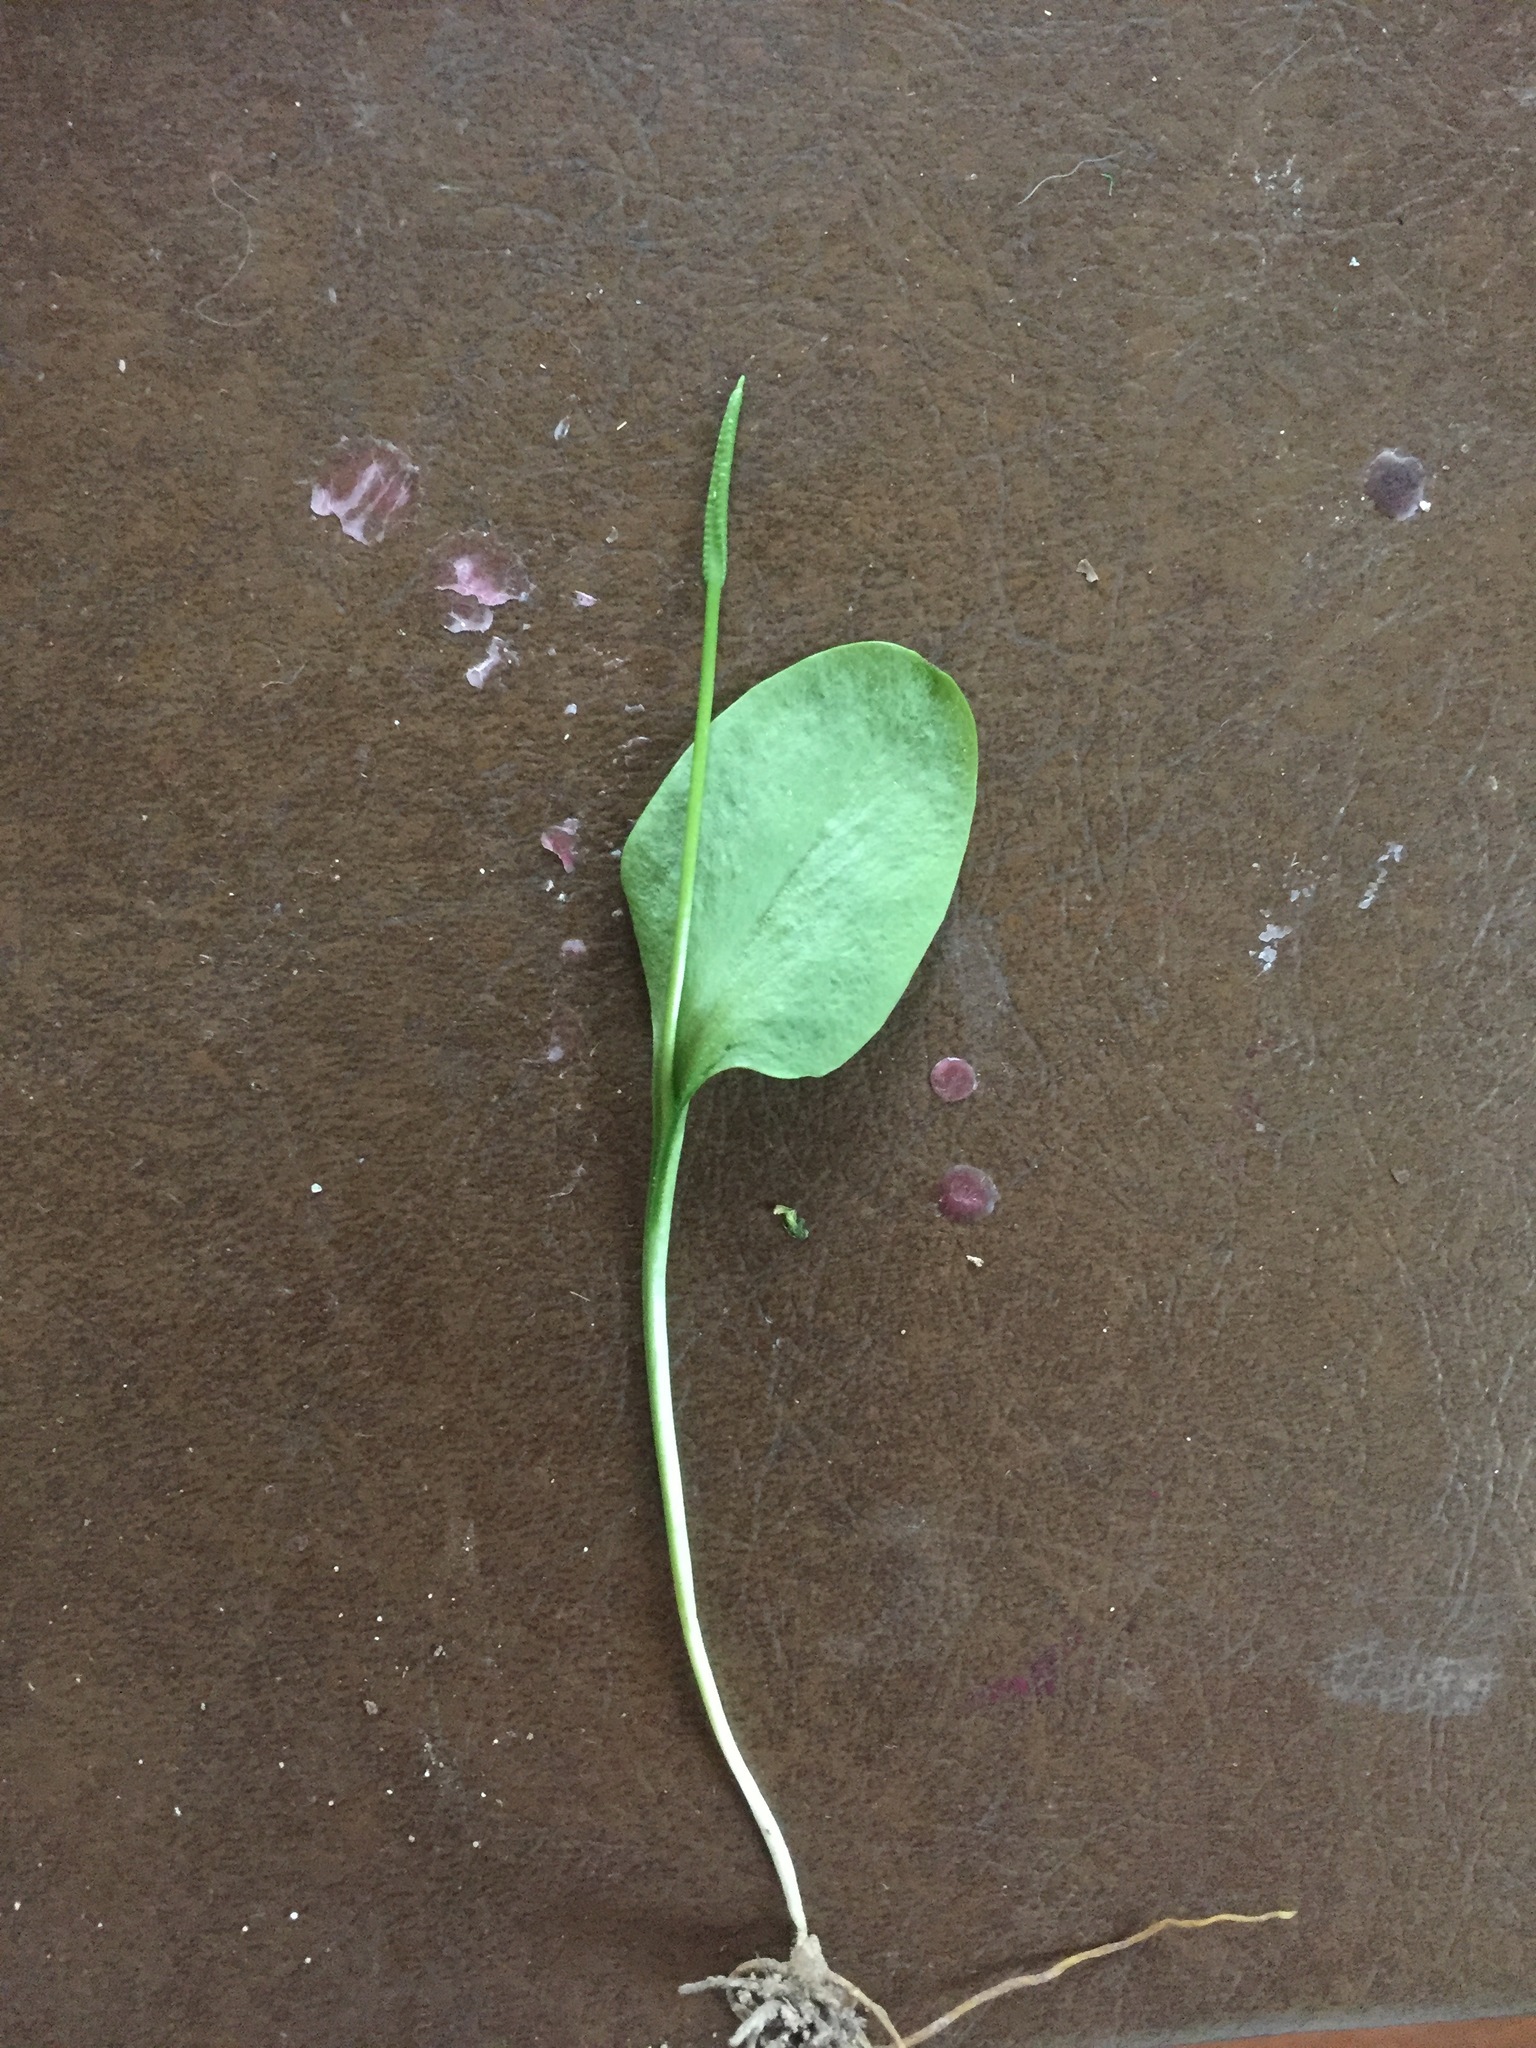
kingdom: Plantae
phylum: Tracheophyta
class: Polypodiopsida
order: Ophioglossales
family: Ophioglossaceae
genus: Ophioglossum
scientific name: Ophioglossum vulgatum
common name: Adder's-tongue
